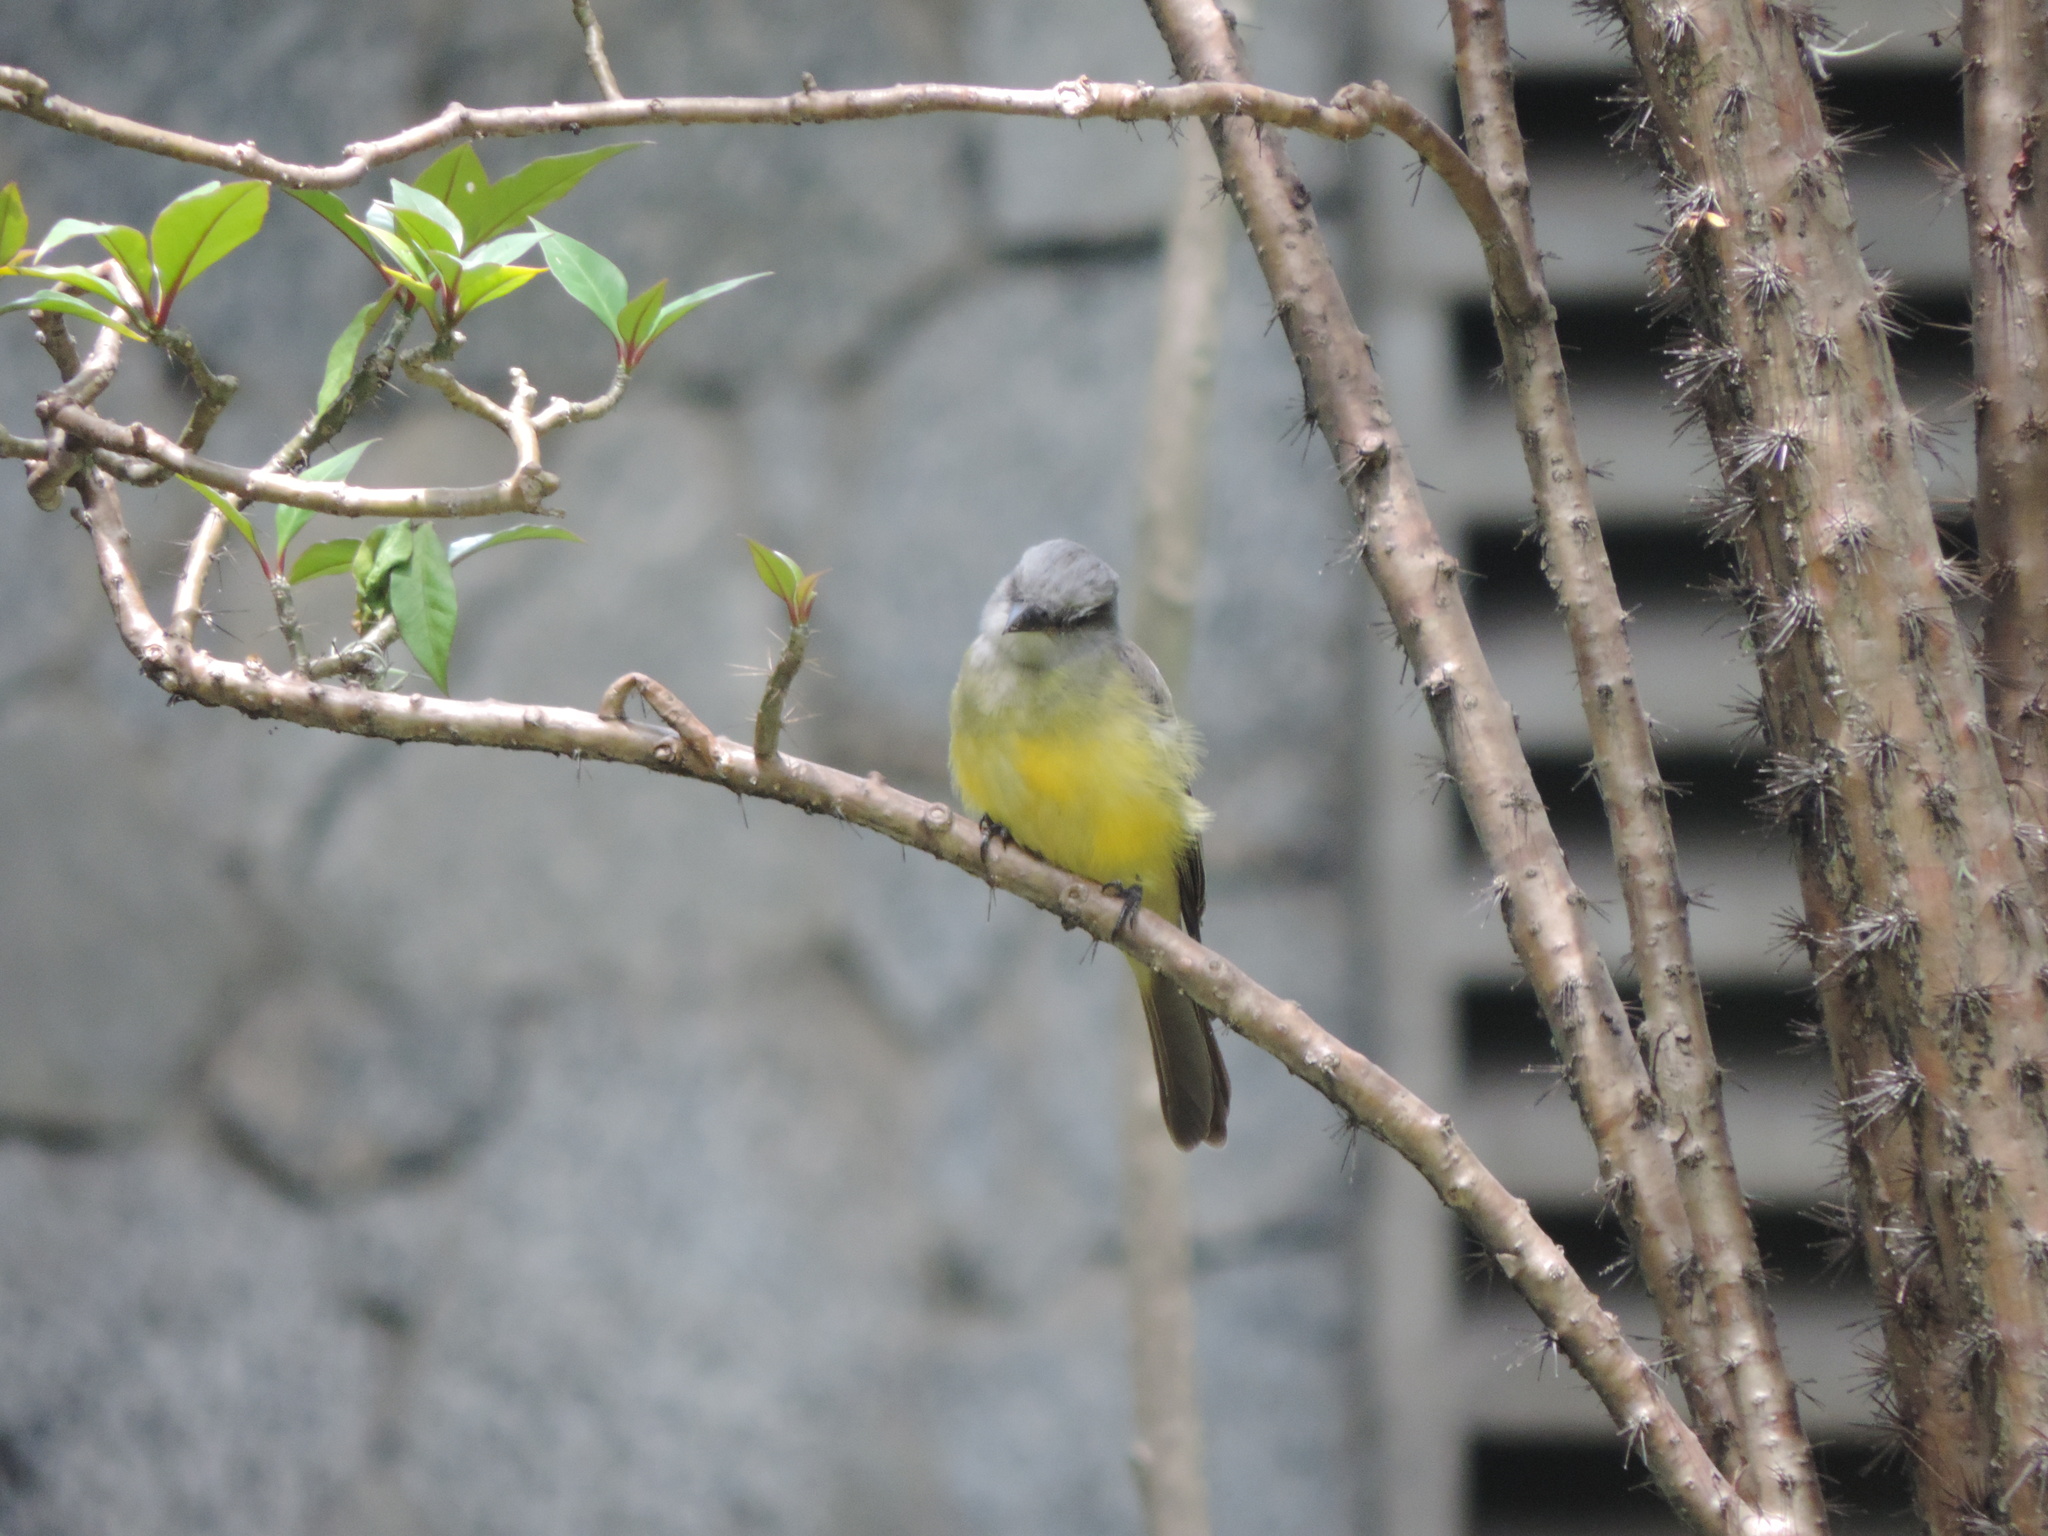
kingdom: Animalia
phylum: Chordata
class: Aves
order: Passeriformes
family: Tyrannidae
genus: Tyrannus
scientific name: Tyrannus melancholicus
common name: Tropical kingbird
